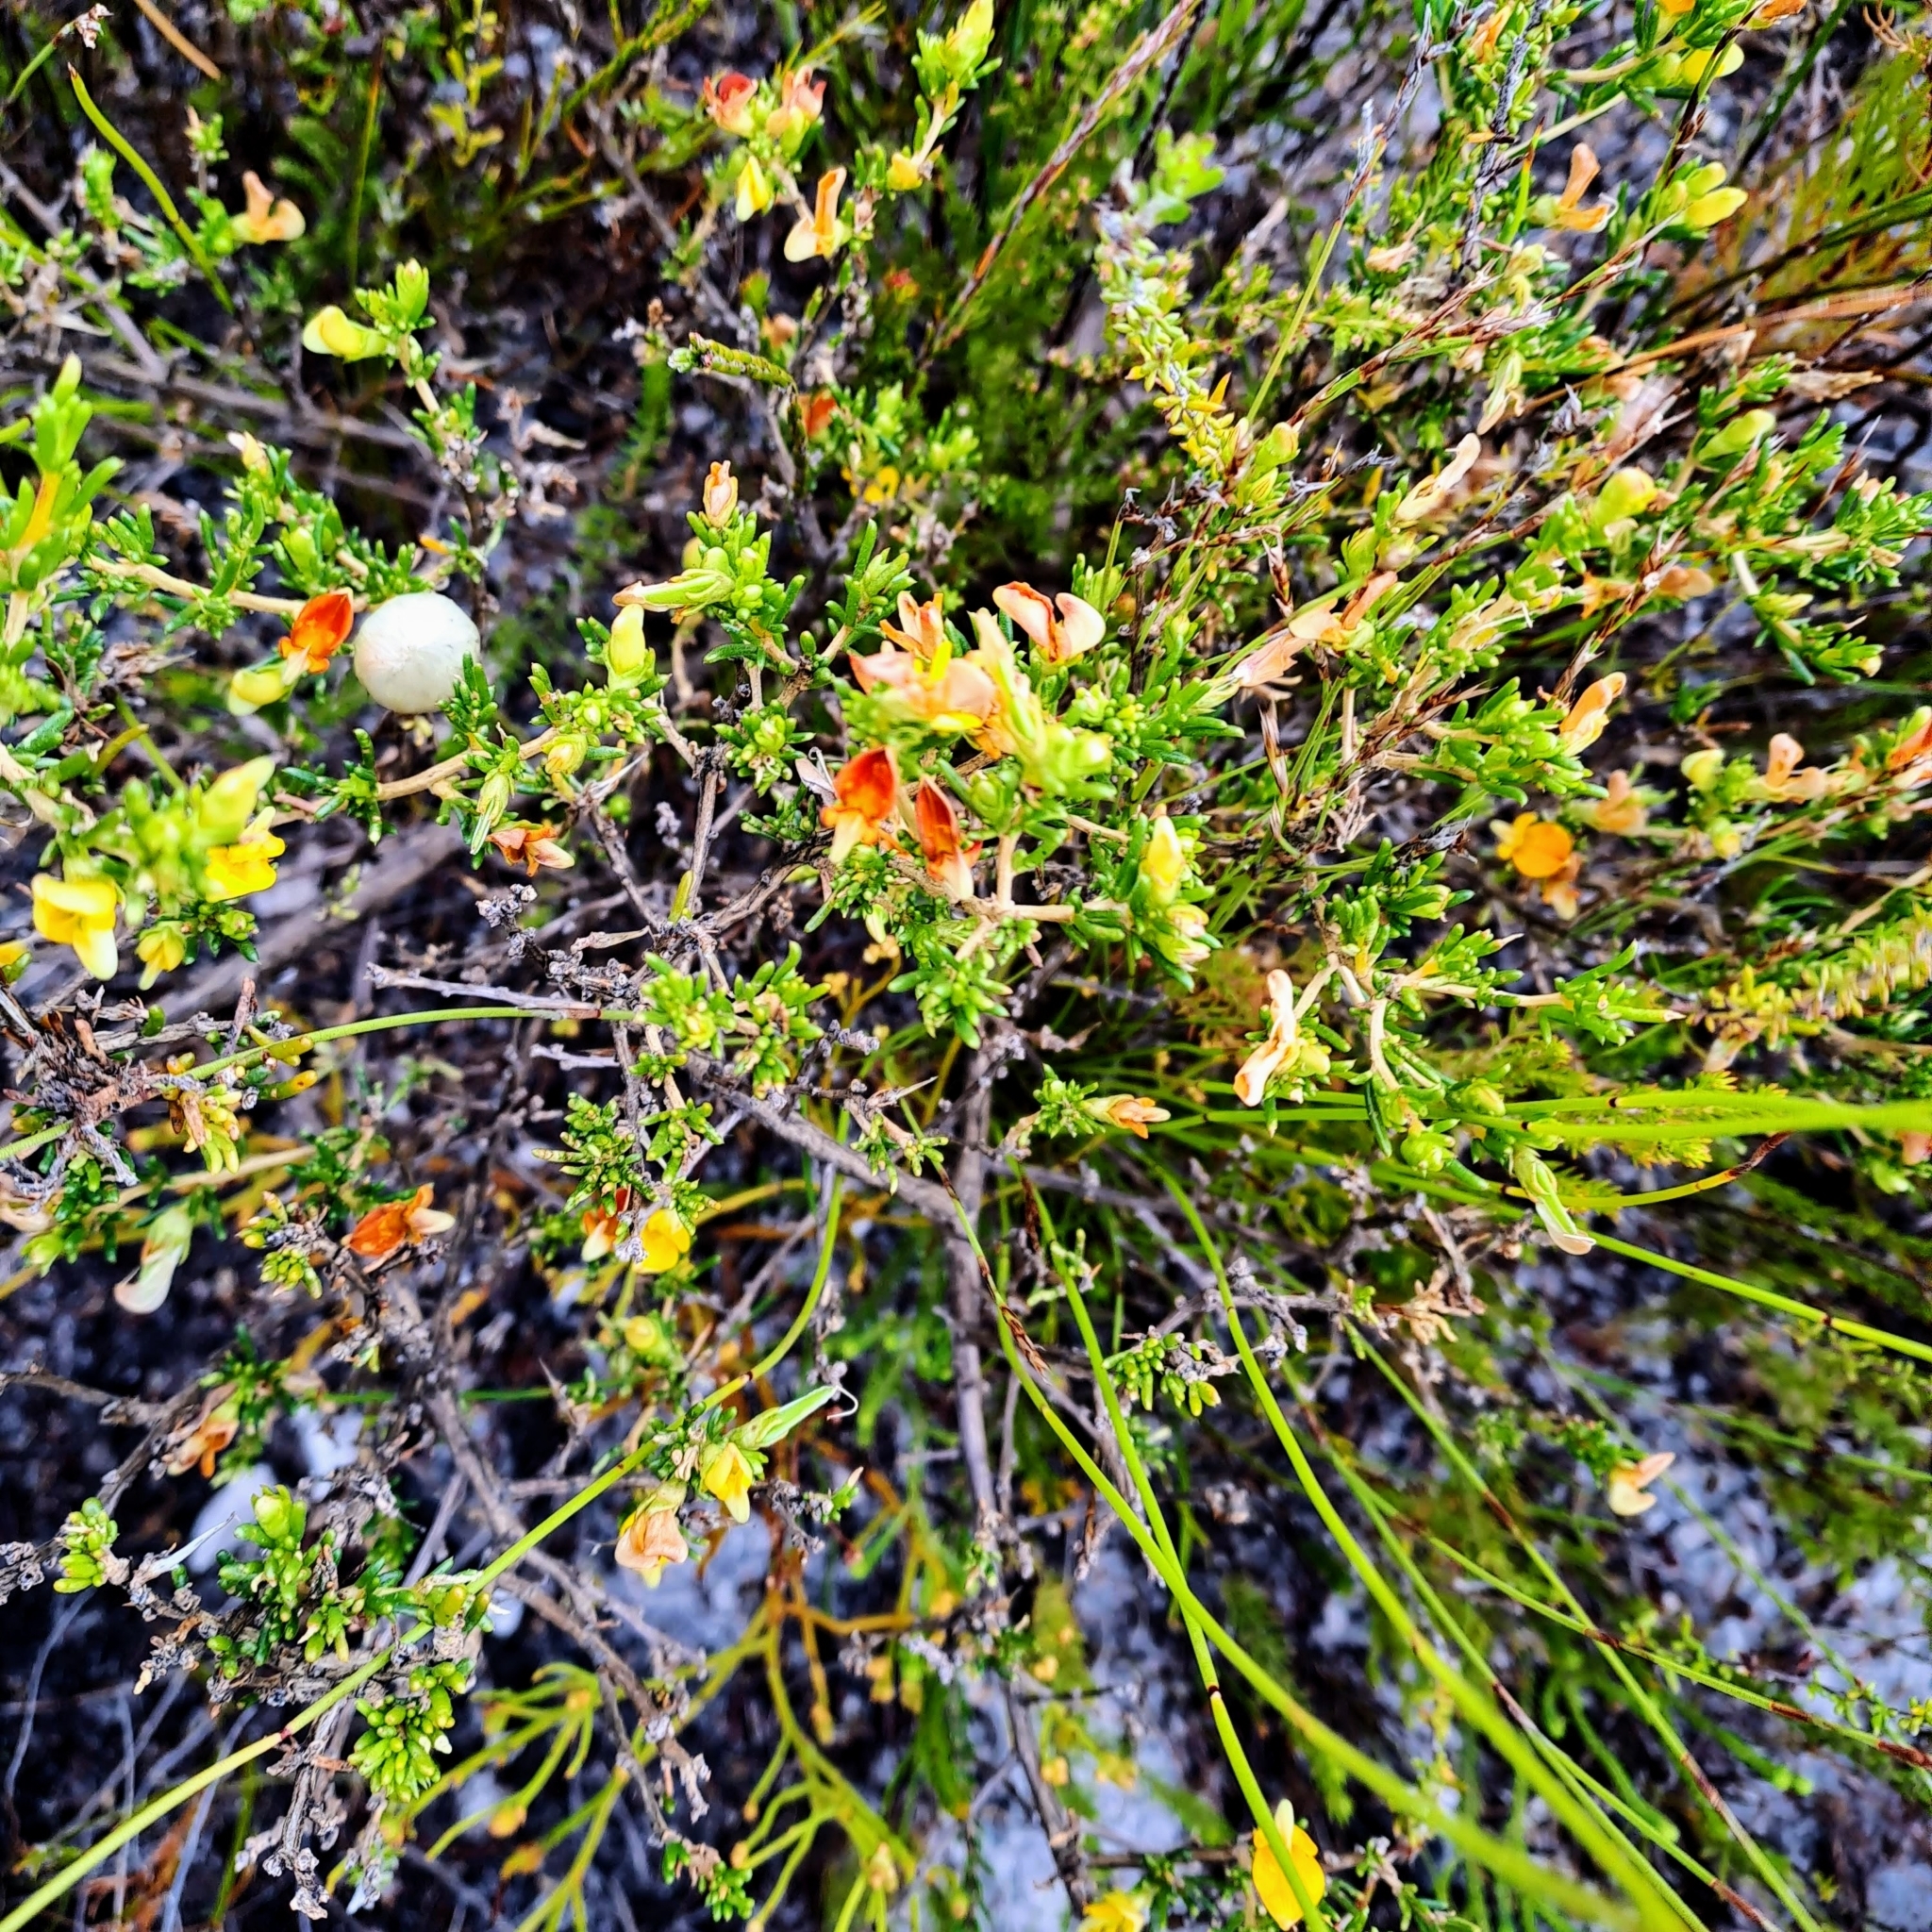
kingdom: Plantae
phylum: Tracheophyta
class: Magnoliopsida
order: Fabales
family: Fabaceae
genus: Aspalathus
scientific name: Aspalathus carnosa
